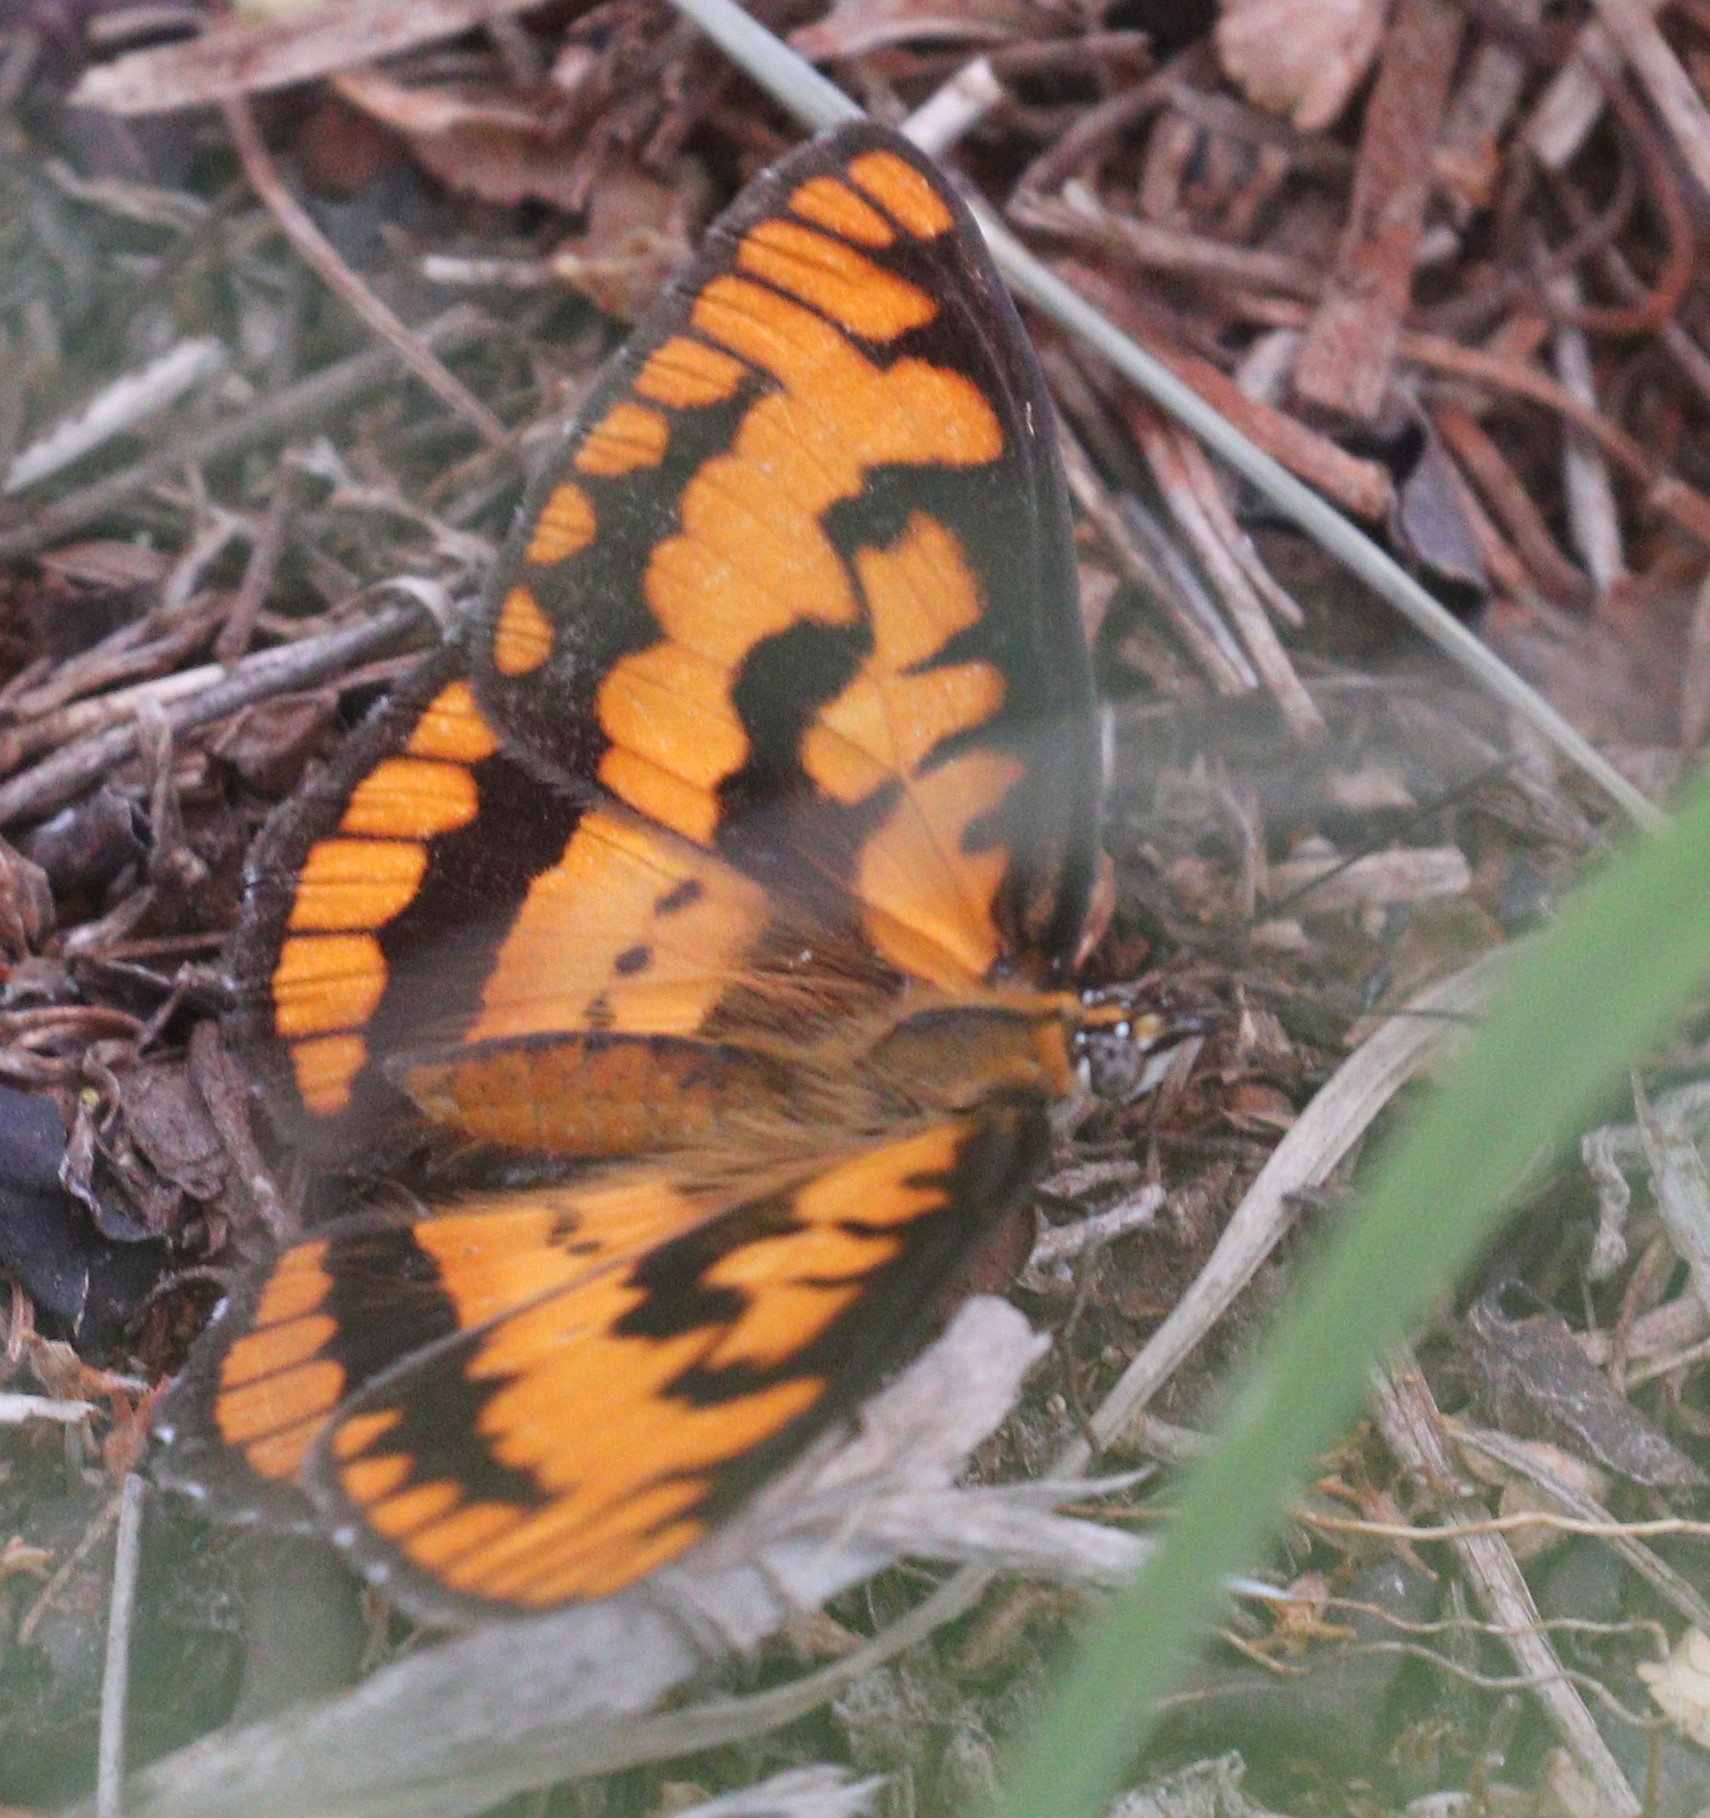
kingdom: Animalia
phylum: Arthropoda
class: Insecta
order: Lepidoptera
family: Nymphalidae
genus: Byblia
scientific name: Byblia ilithyia
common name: Spotted joker
